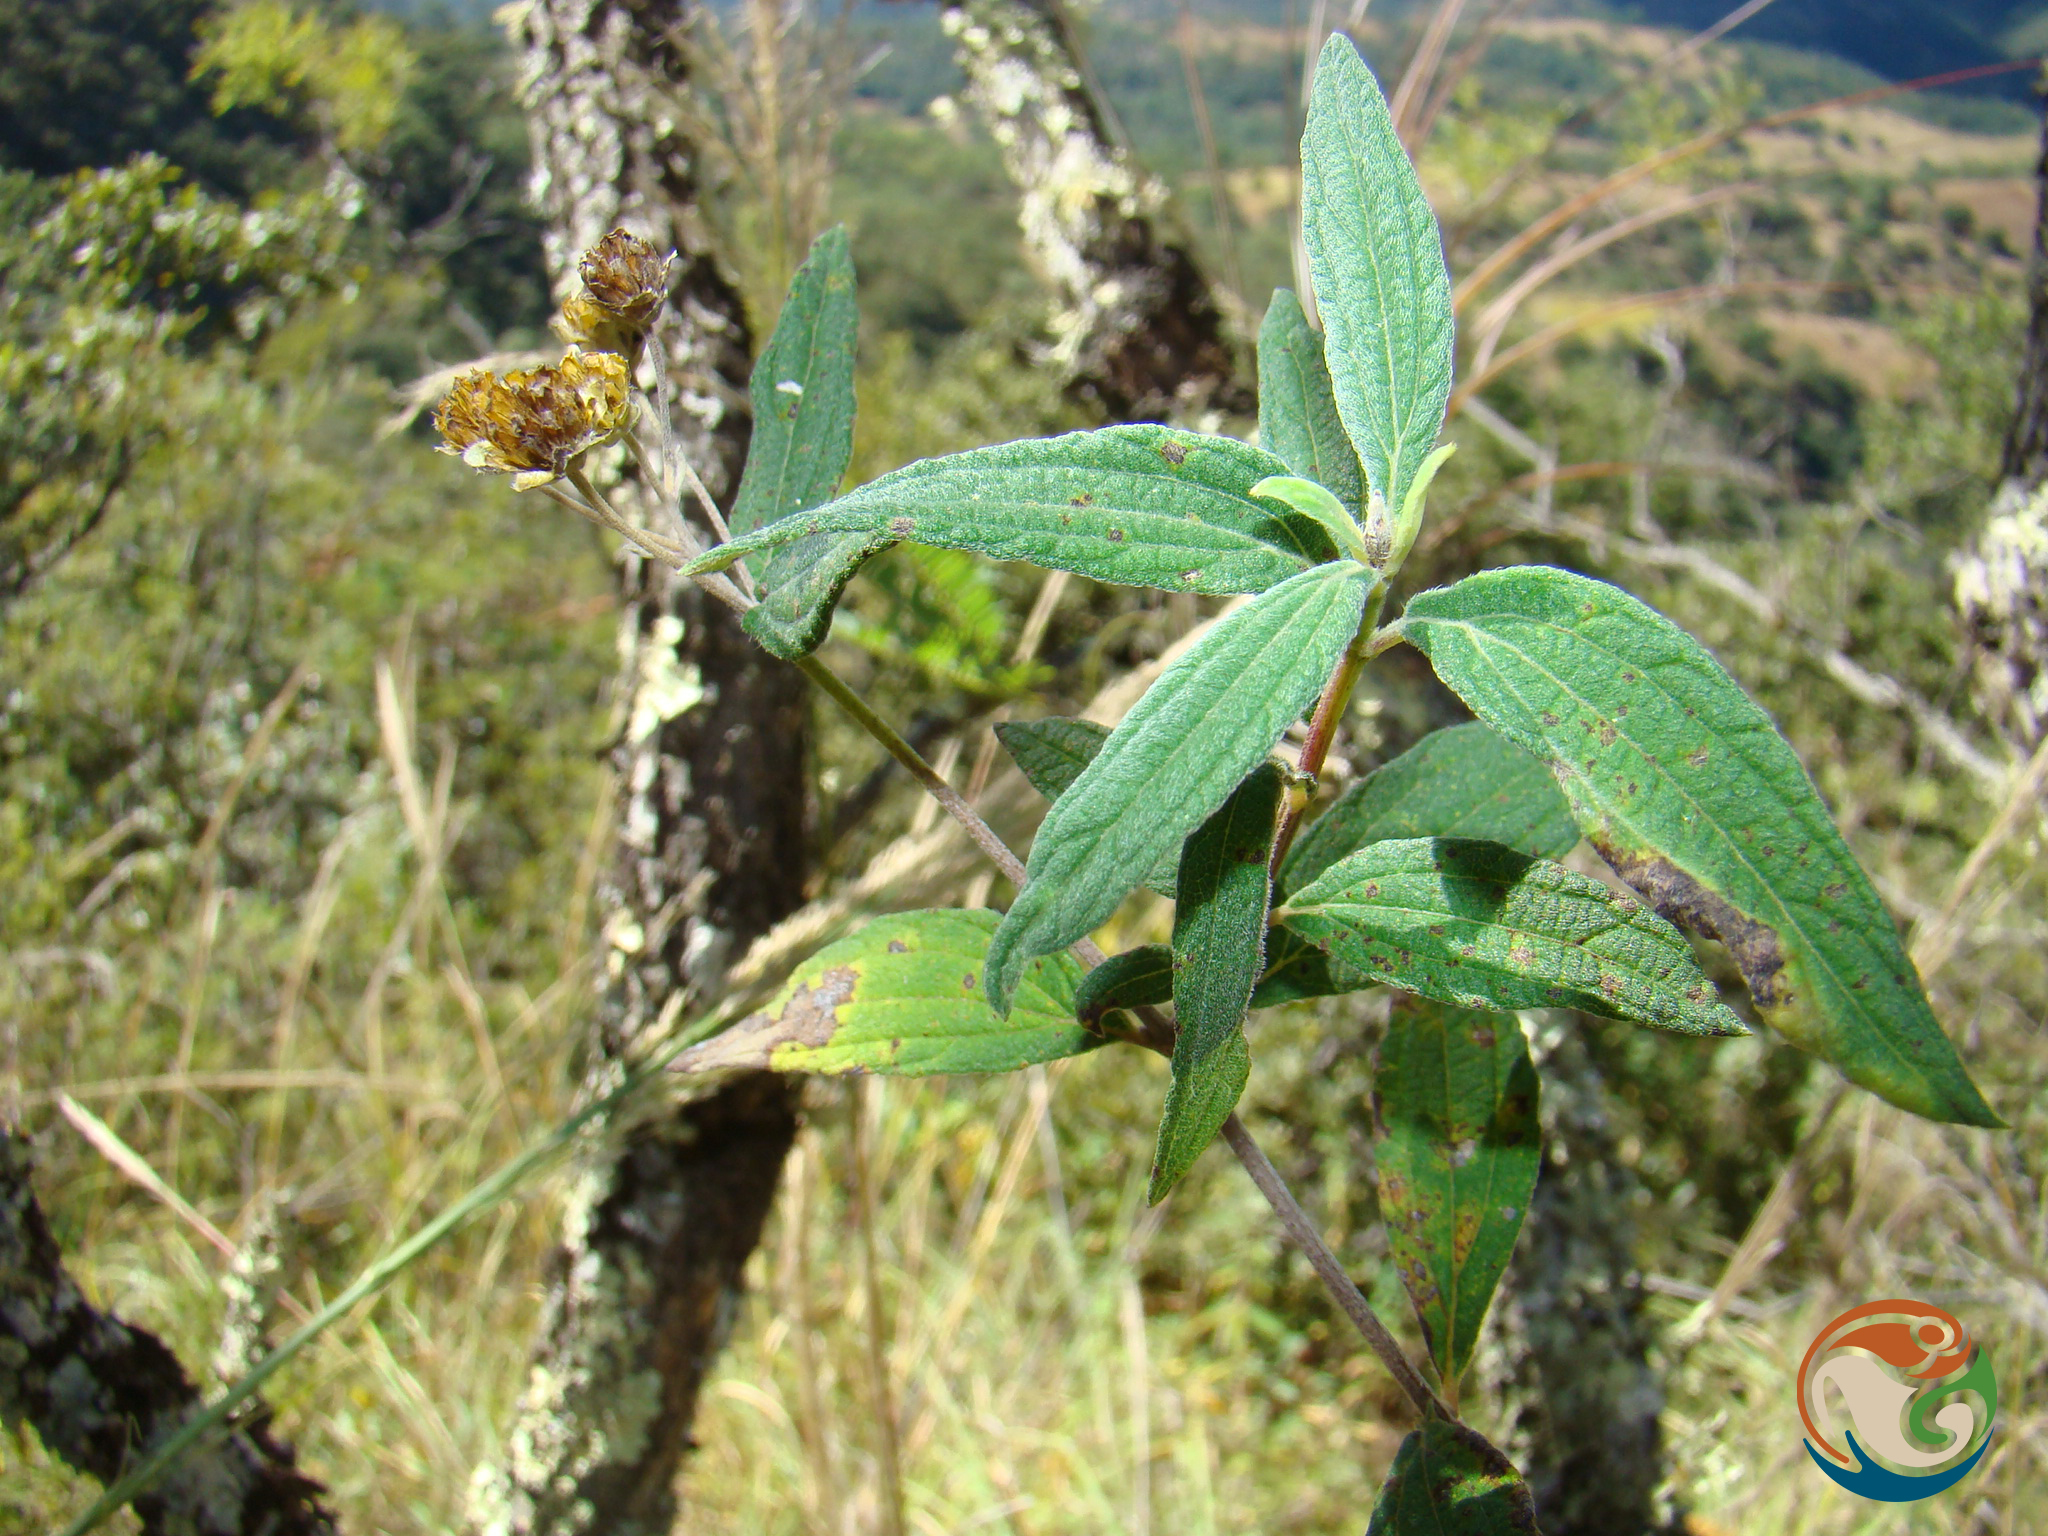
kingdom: Plantae
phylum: Tracheophyta
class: Magnoliopsida
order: Asterales
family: Asteraceae
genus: Perymenium
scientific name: Perymenium discolor
